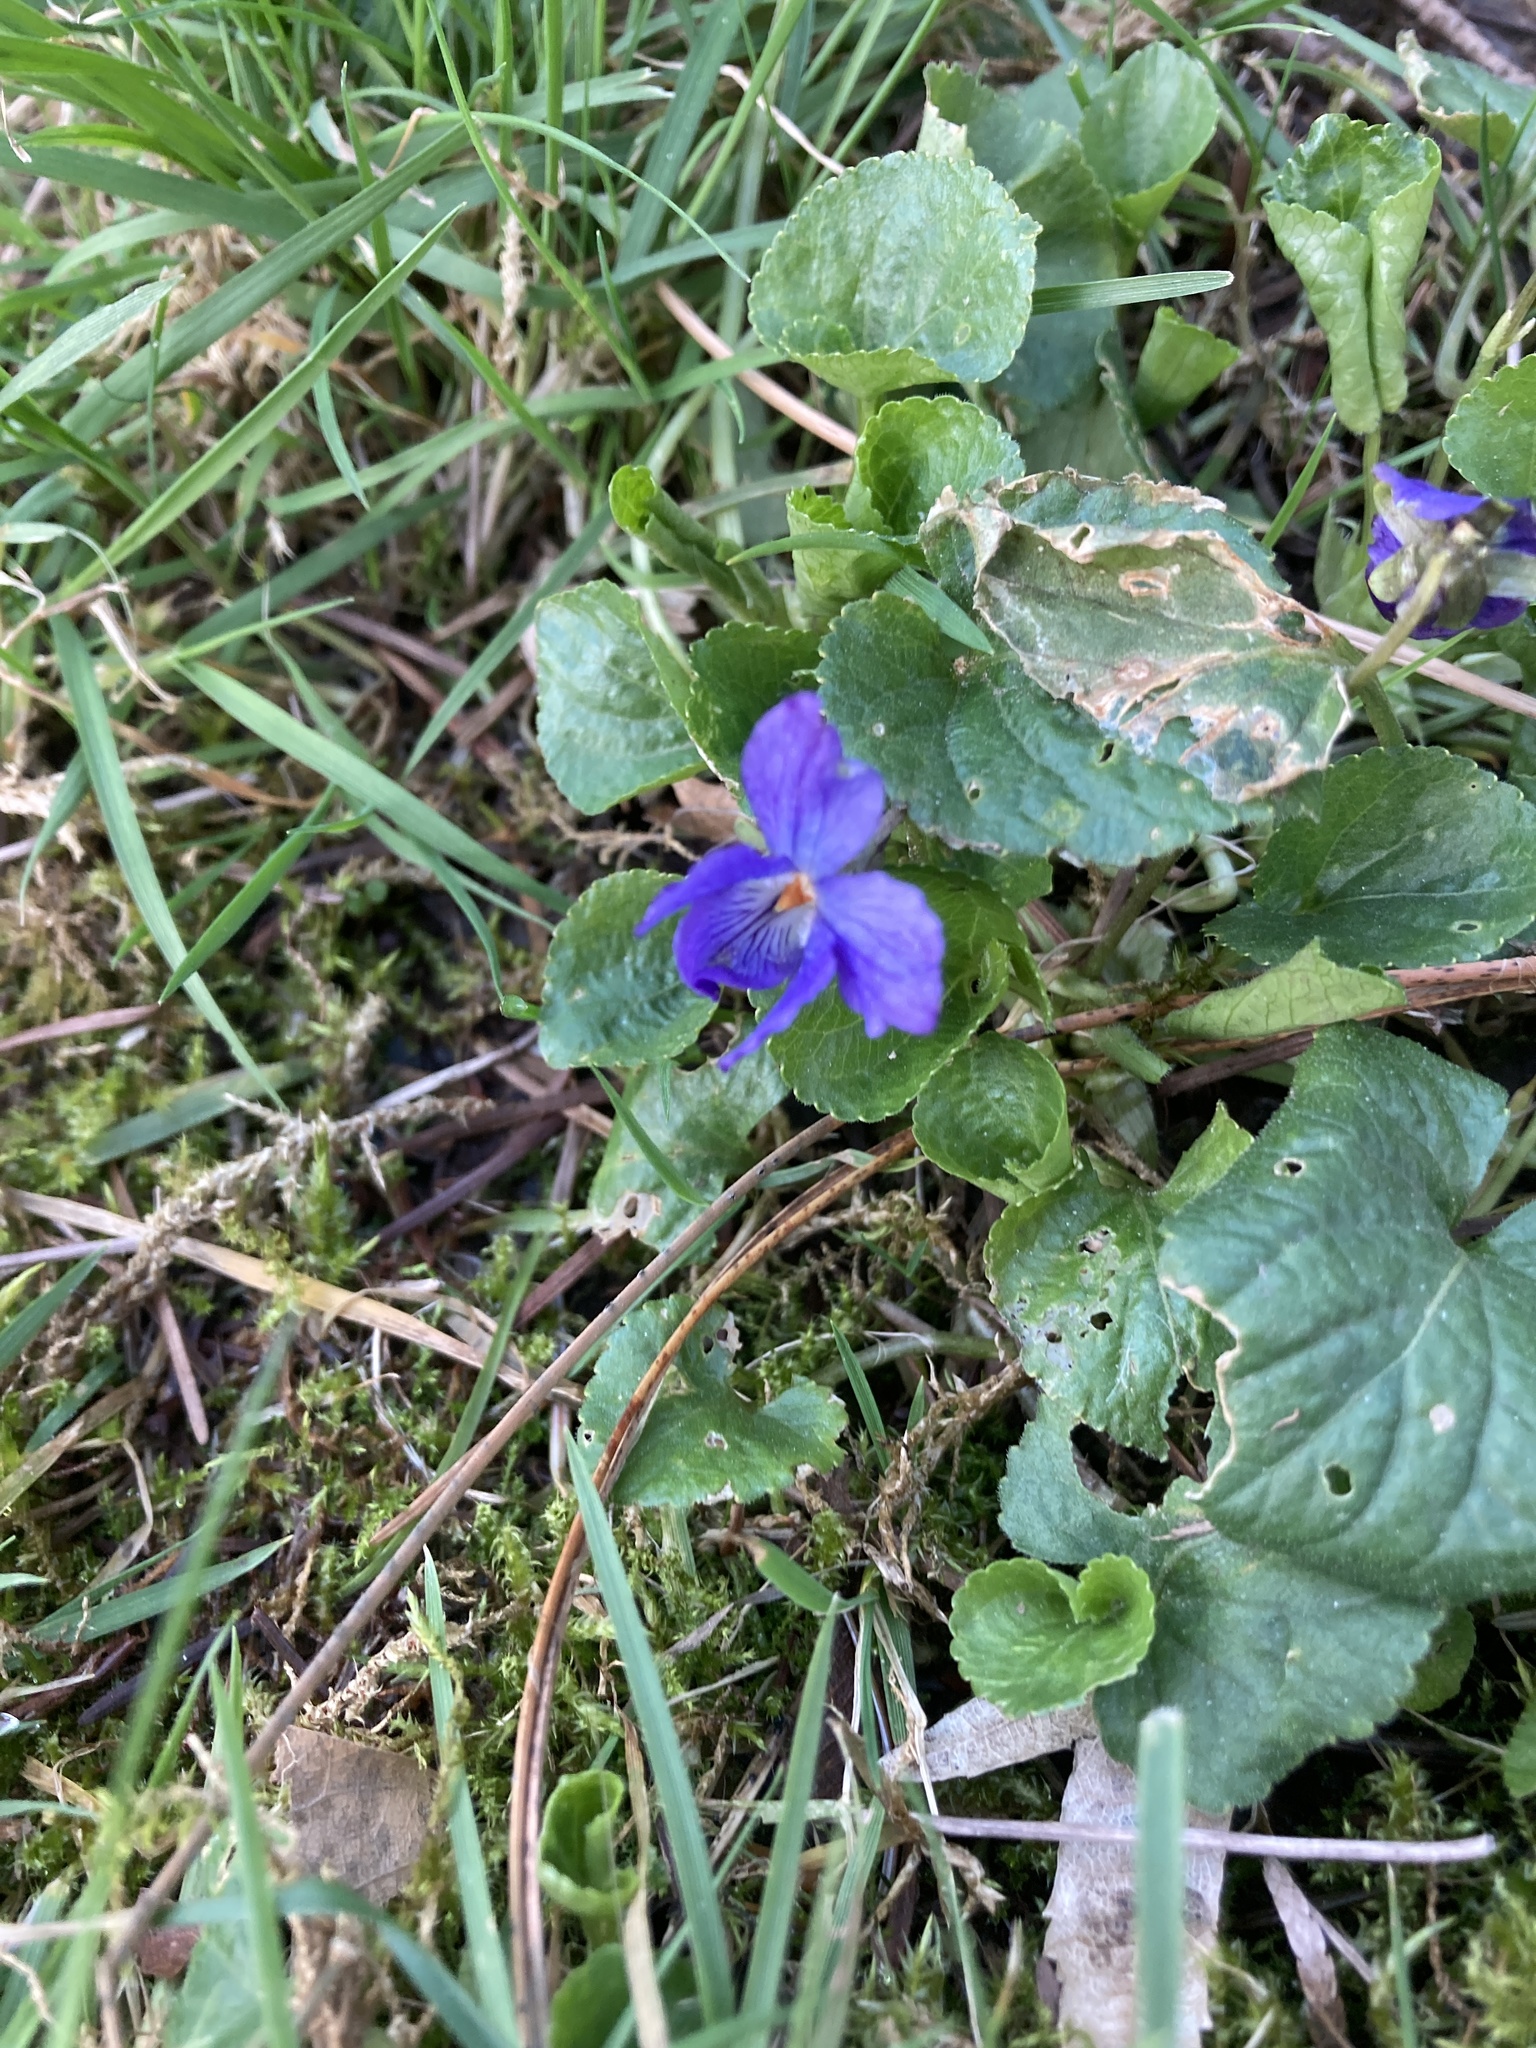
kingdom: Plantae
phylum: Tracheophyta
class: Magnoliopsida
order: Malpighiales
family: Violaceae
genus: Viola
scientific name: Viola odorata
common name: Sweet violet
